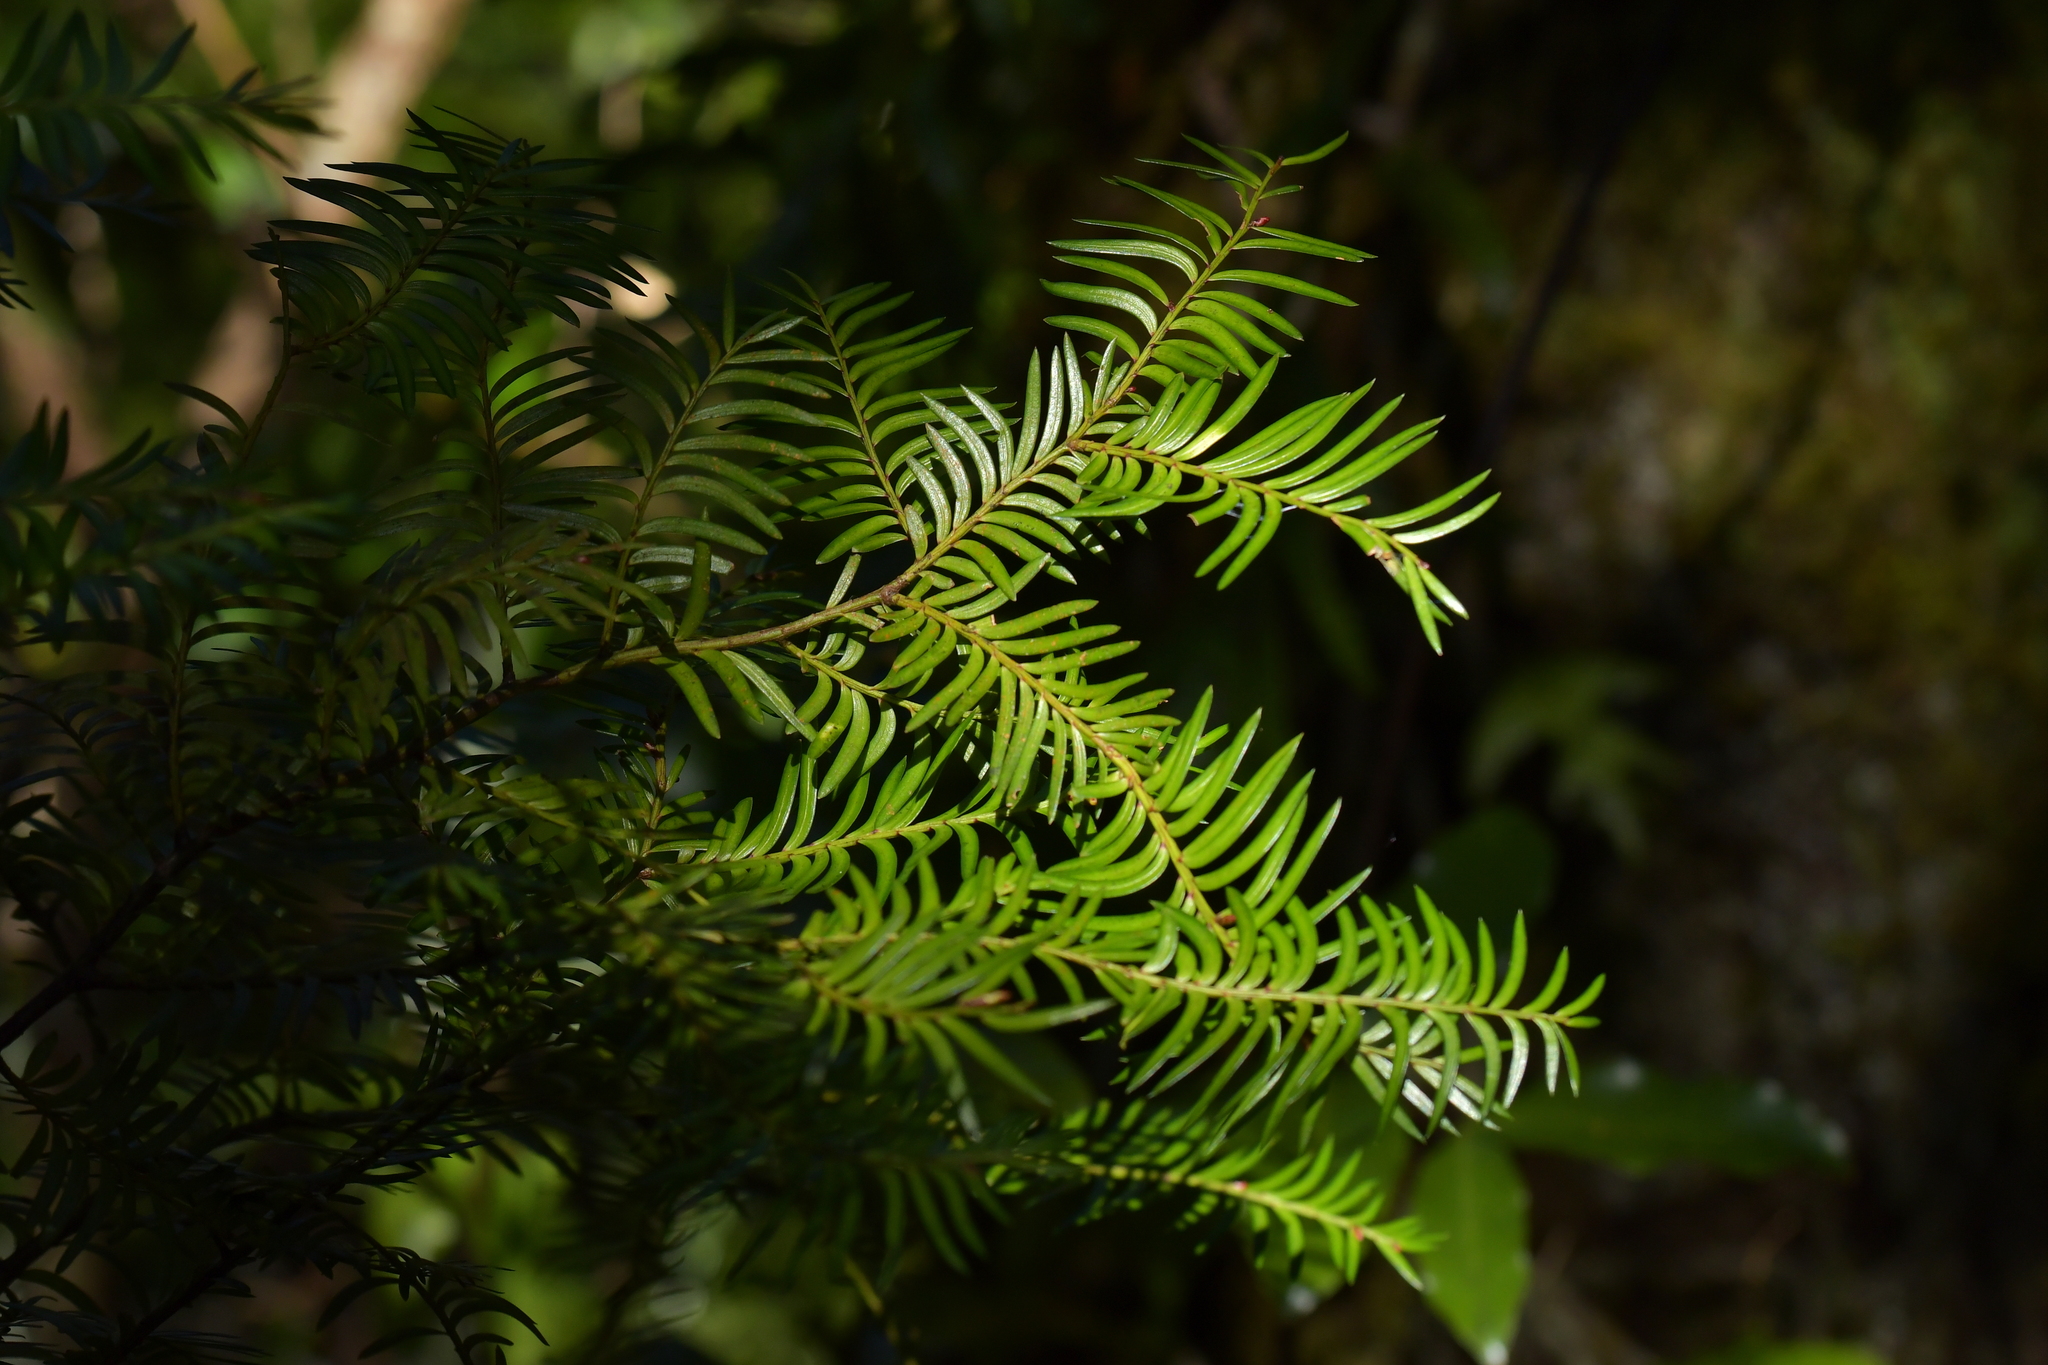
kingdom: Plantae
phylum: Tracheophyta
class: Pinopsida
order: Pinales
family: Podocarpaceae
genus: Prumnopitys
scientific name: Prumnopitys ferruginea
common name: Brown pine
